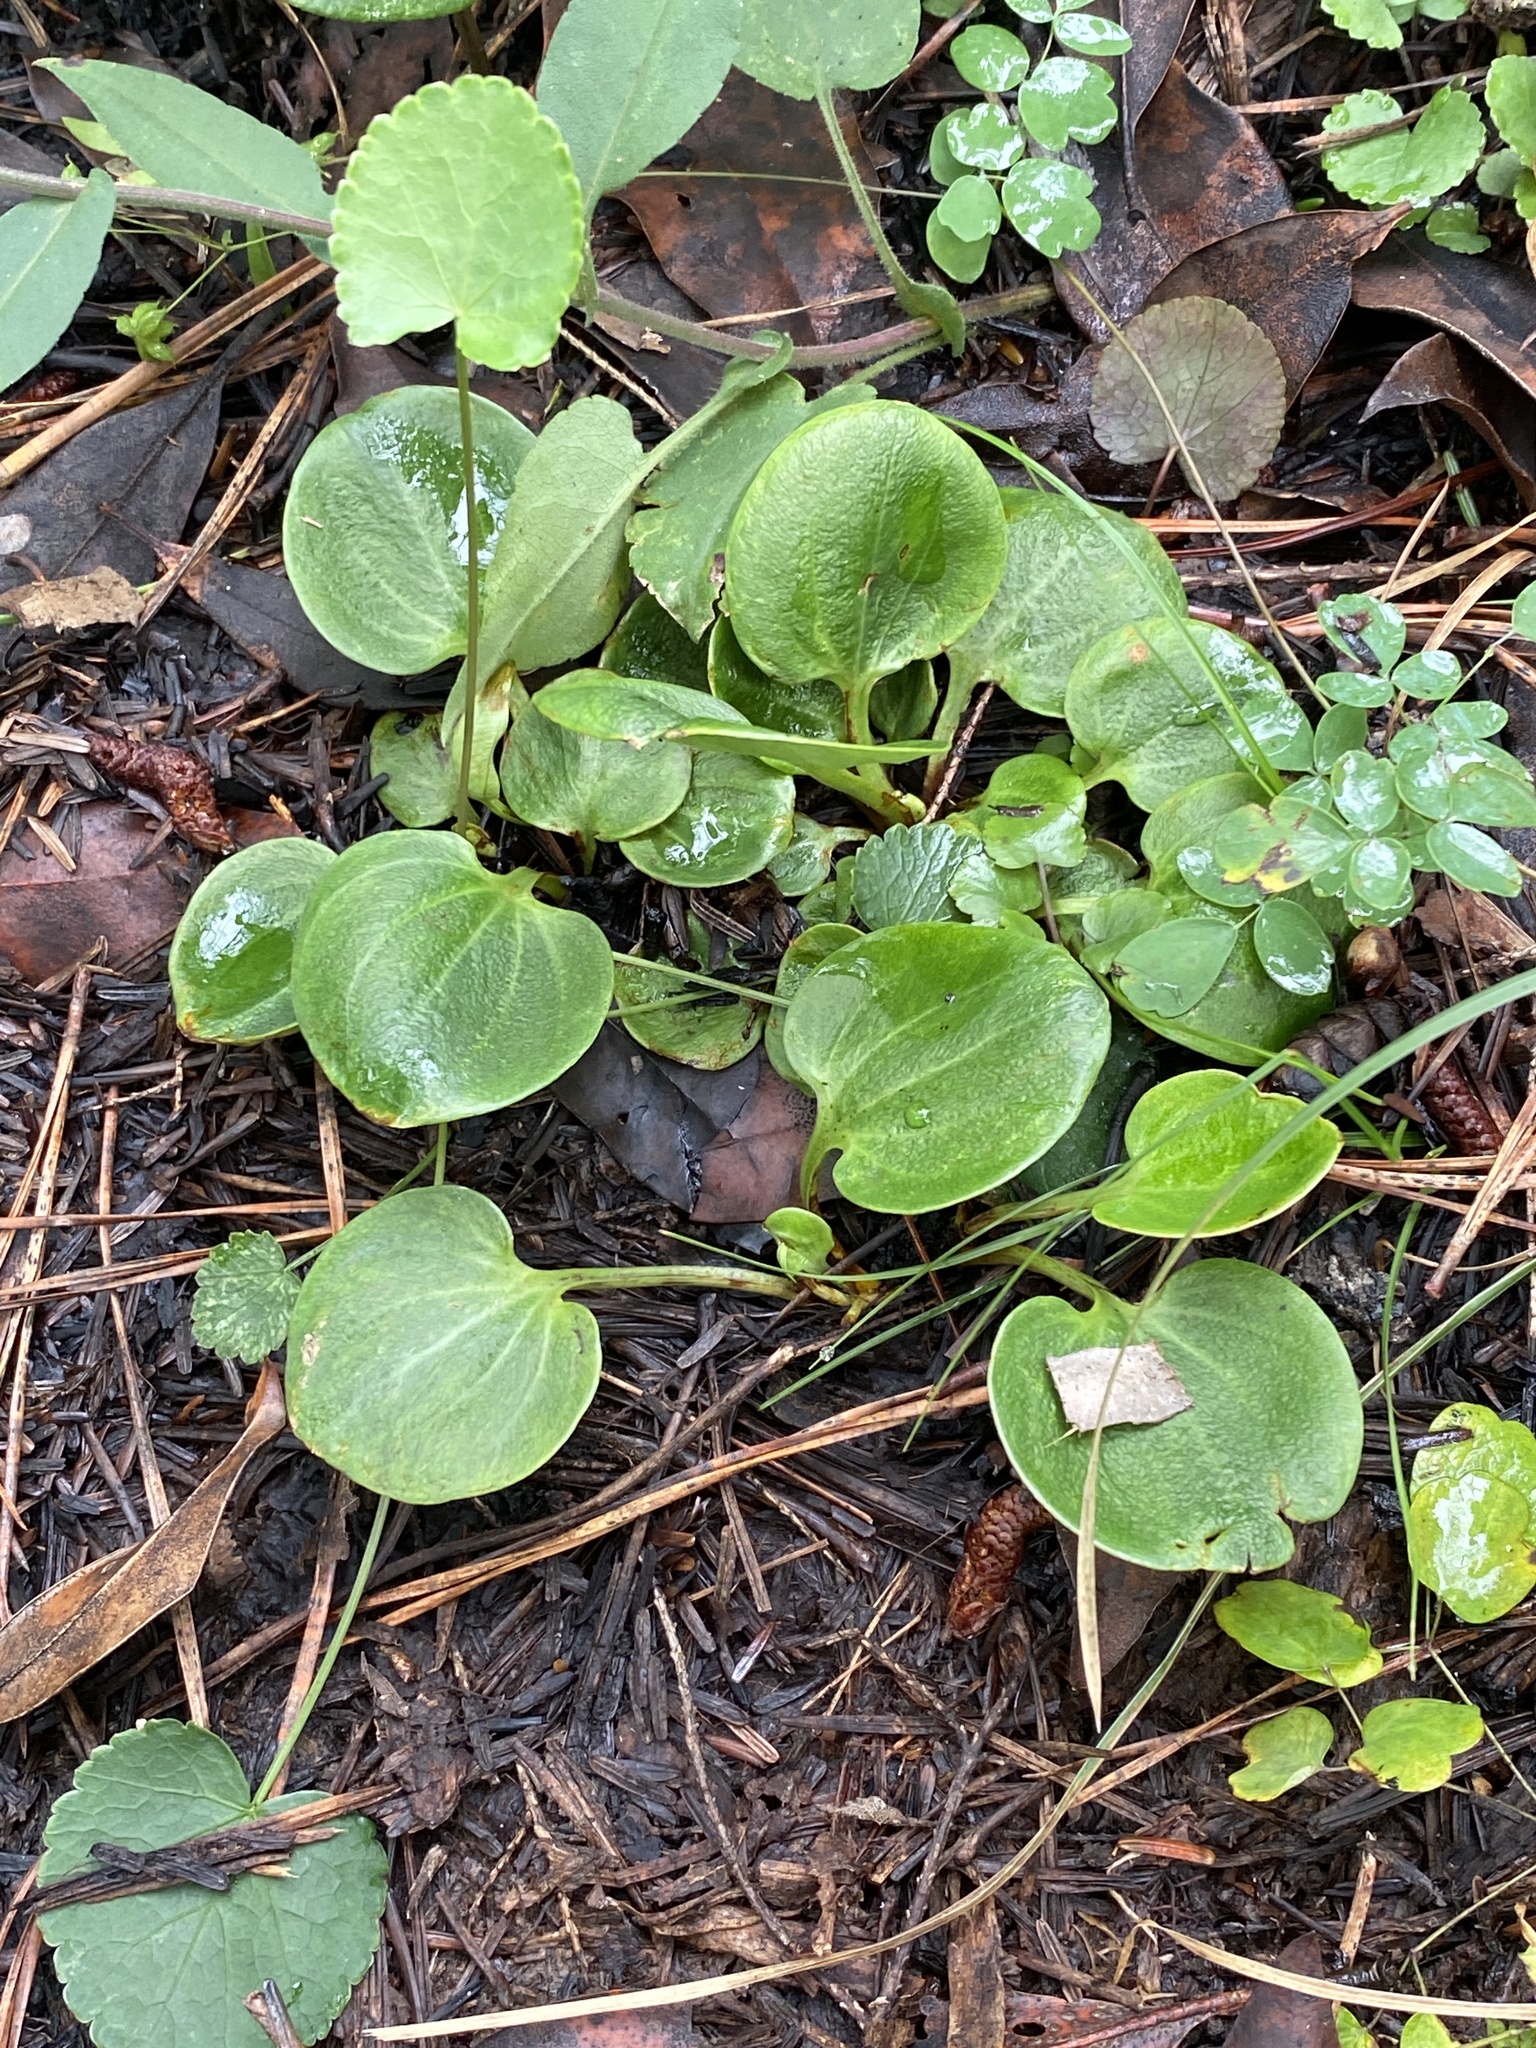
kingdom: Plantae
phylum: Tracheophyta
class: Magnoliopsida
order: Celastrales
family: Parnassiaceae
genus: Parnassia
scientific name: Parnassia grandifolia
